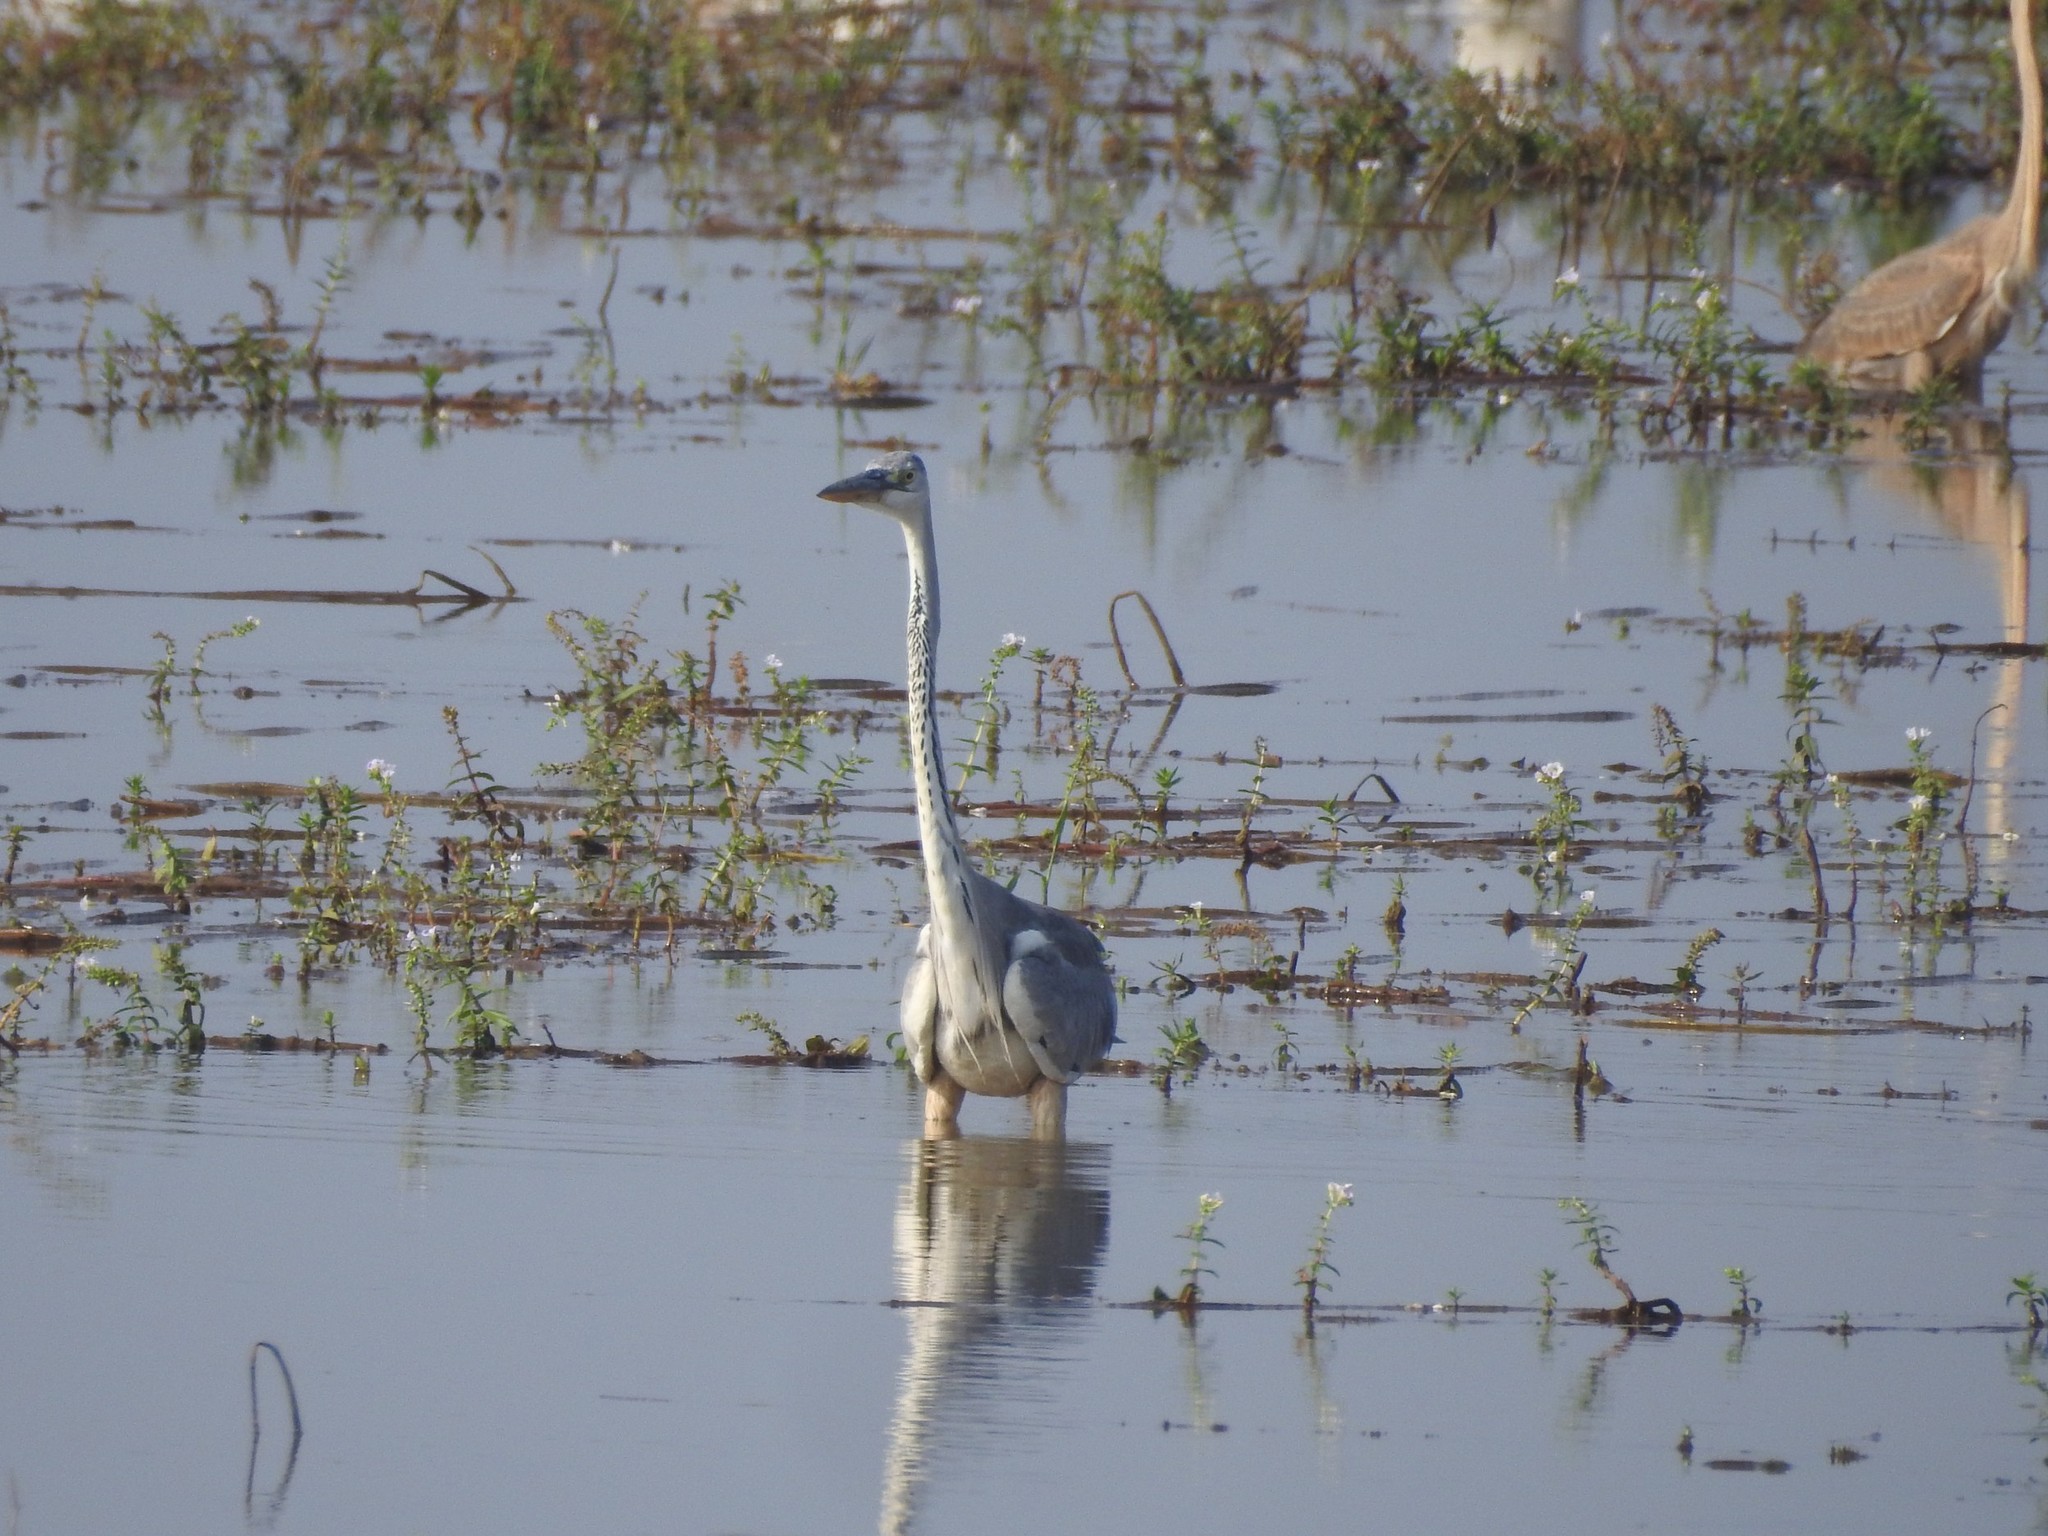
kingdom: Animalia
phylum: Chordata
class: Aves
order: Pelecaniformes
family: Ardeidae
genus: Ardea
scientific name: Ardea cinerea
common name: Grey heron
